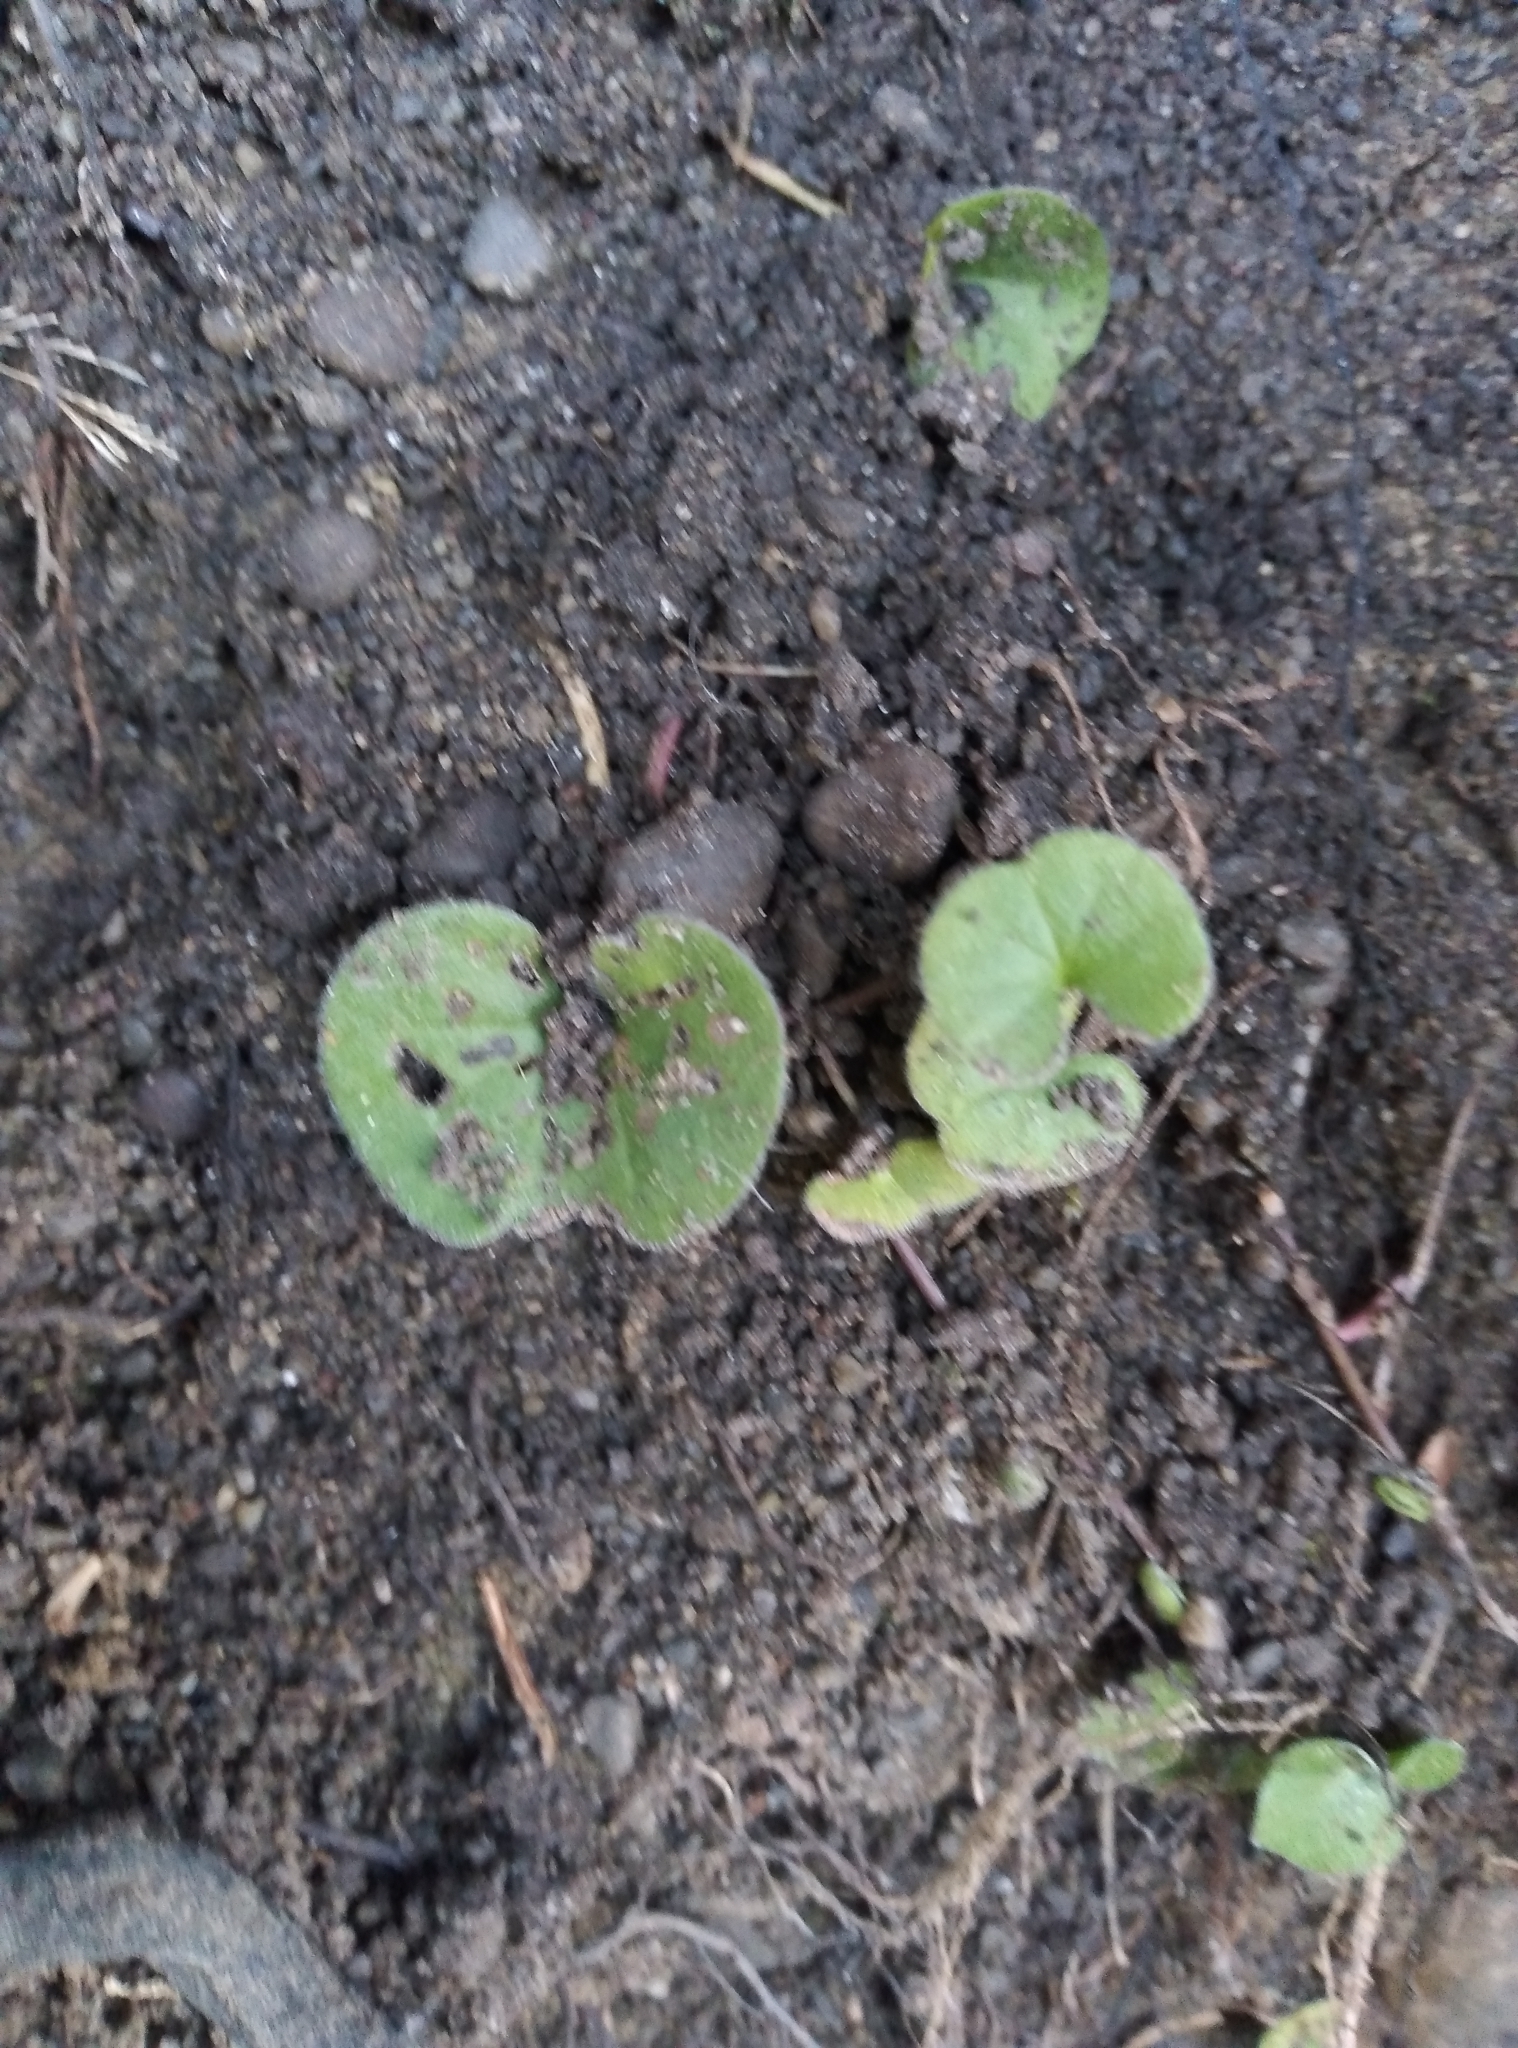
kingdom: Plantae
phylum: Tracheophyta
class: Magnoliopsida
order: Solanales
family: Convolvulaceae
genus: Dichondra
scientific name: Dichondra repens
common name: Kidneyweed
